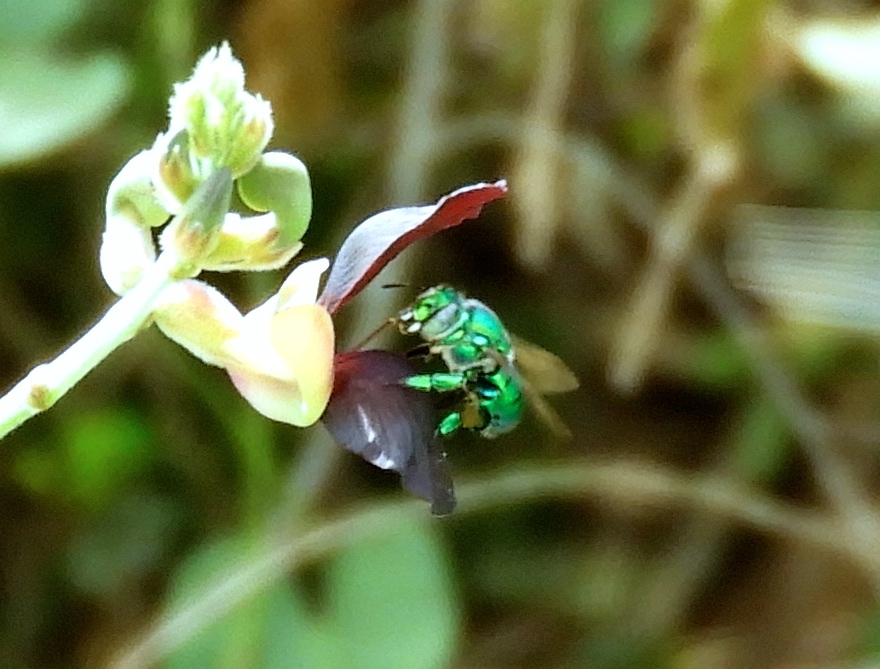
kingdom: Animalia
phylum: Arthropoda
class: Insecta
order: Hymenoptera
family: Apidae
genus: Euglossa
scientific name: Euglossa
